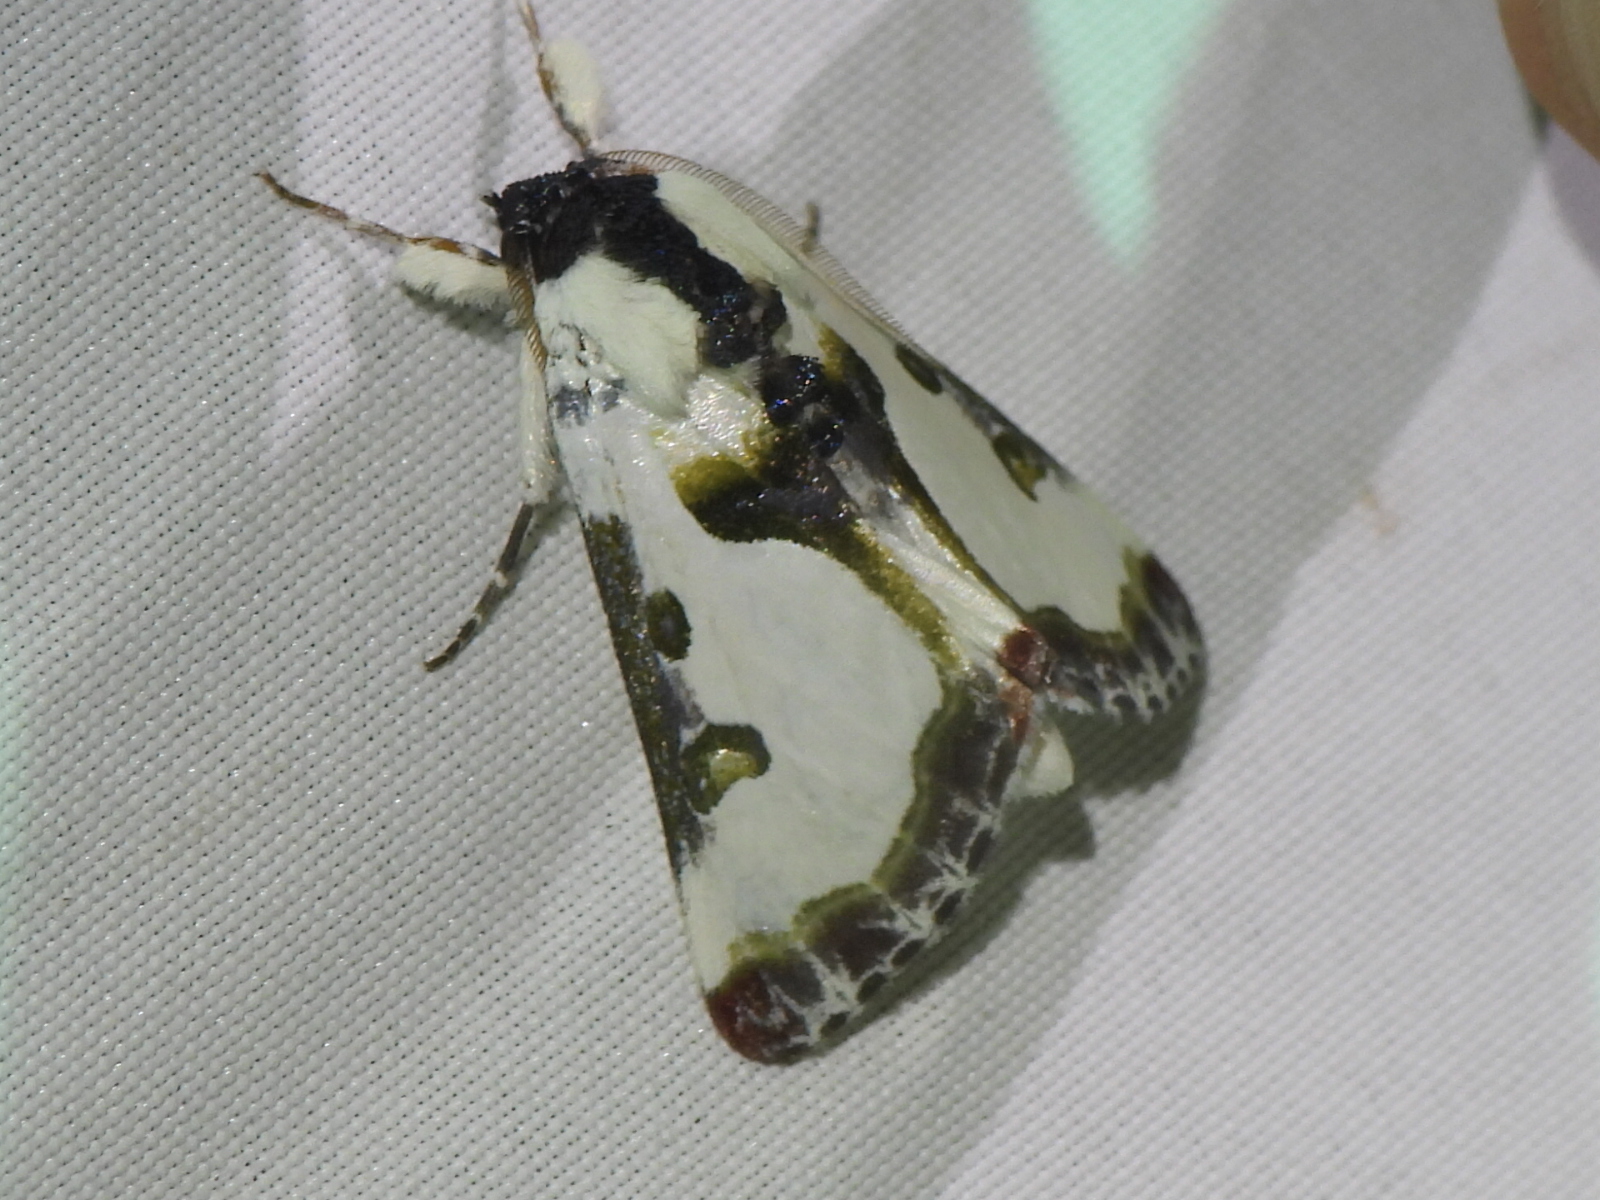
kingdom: Animalia
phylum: Arthropoda
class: Insecta
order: Lepidoptera
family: Noctuidae
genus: Xerociris
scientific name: Xerociris wilsonii
